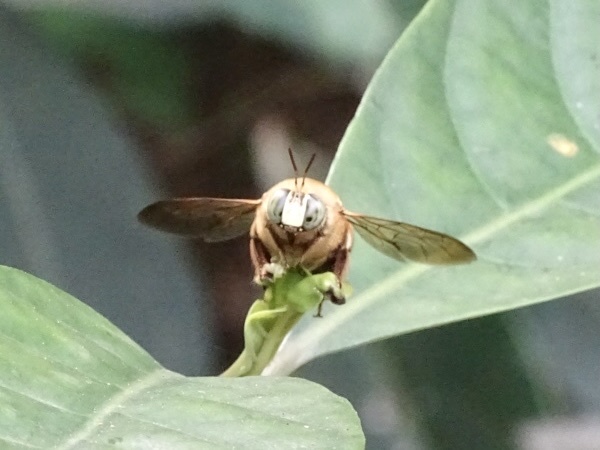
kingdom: Animalia
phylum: Arthropoda
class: Insecta
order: Hymenoptera
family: Apidae
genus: Xylocopa
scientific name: Xylocopa dejeanii
